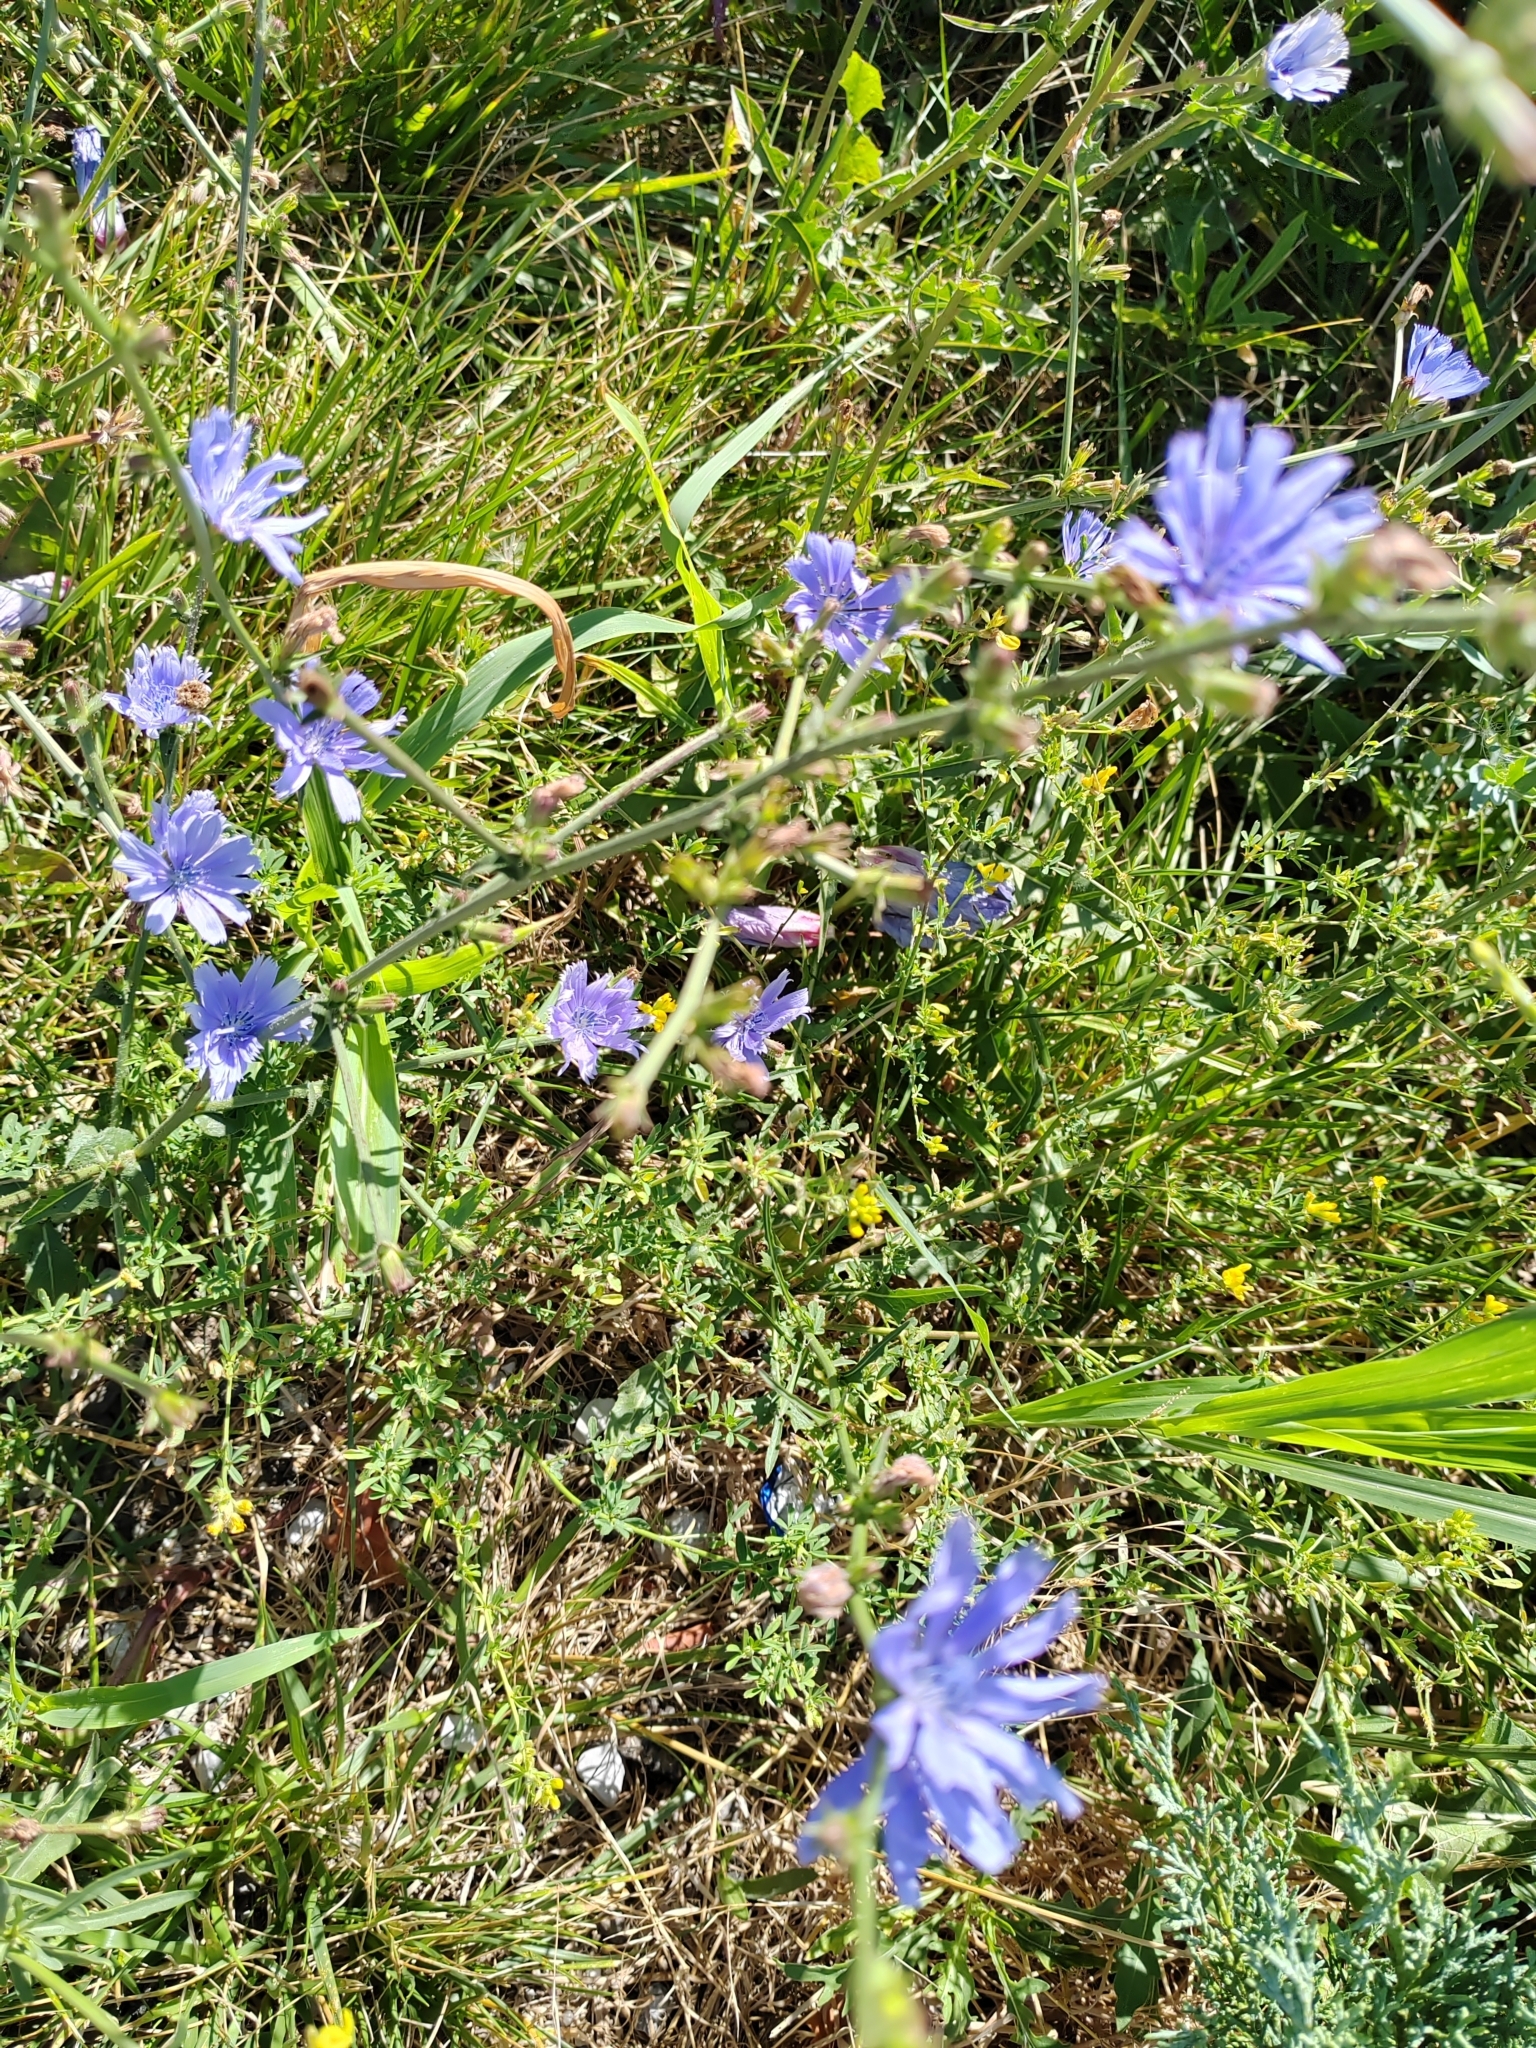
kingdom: Plantae
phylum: Tracheophyta
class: Magnoliopsida
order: Asterales
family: Asteraceae
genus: Cichorium
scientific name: Cichorium intybus
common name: Chicory
